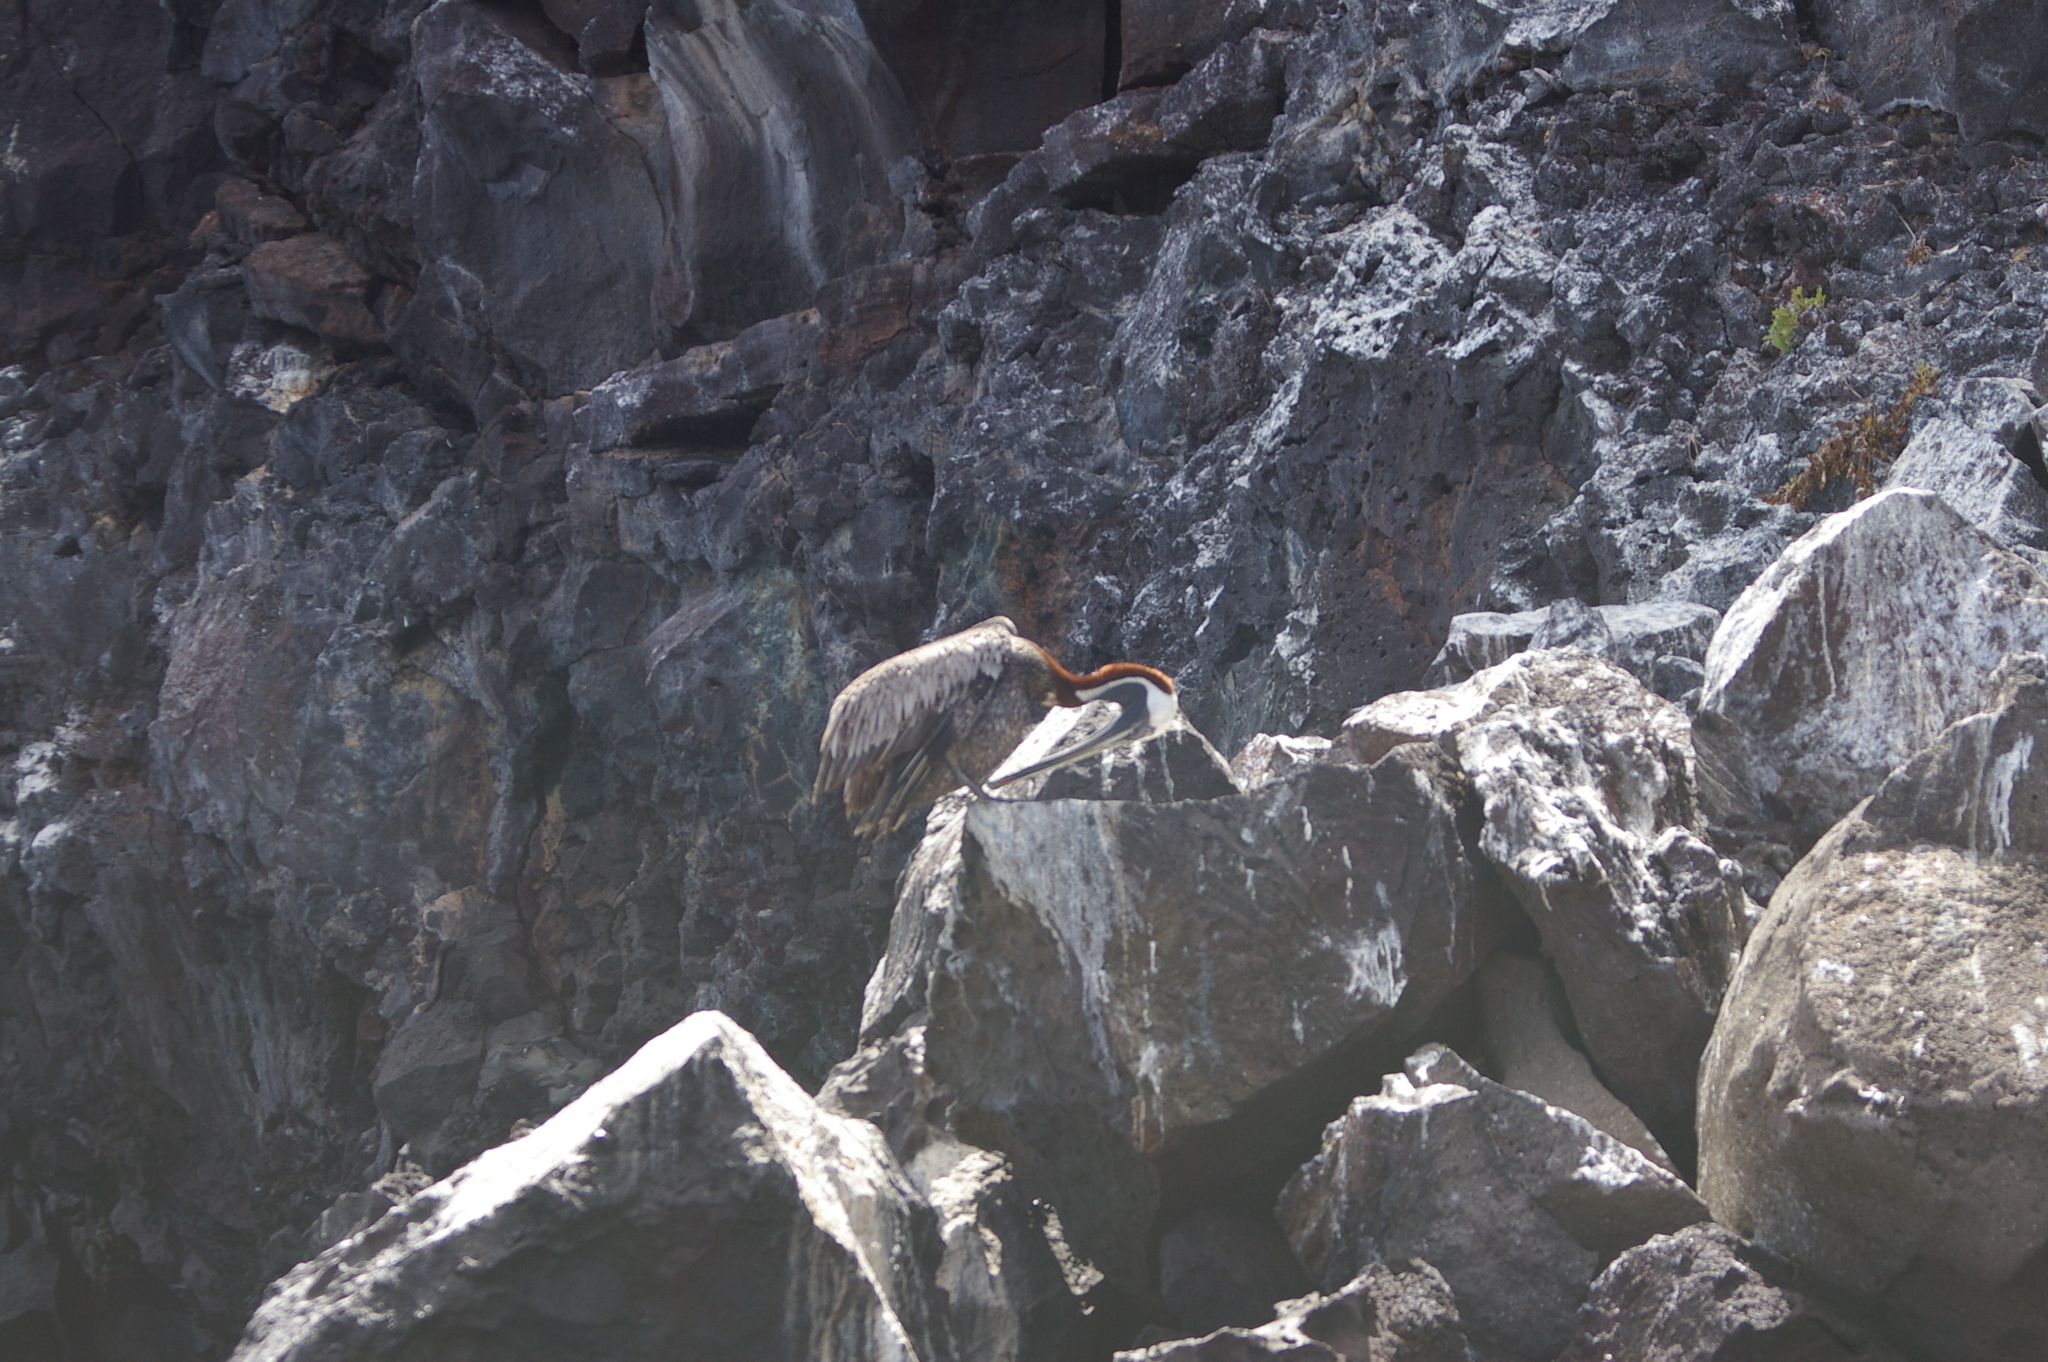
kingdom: Animalia
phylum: Chordata
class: Aves
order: Pelecaniformes
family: Pelecanidae
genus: Pelecanus
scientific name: Pelecanus occidentalis
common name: Brown pelican
